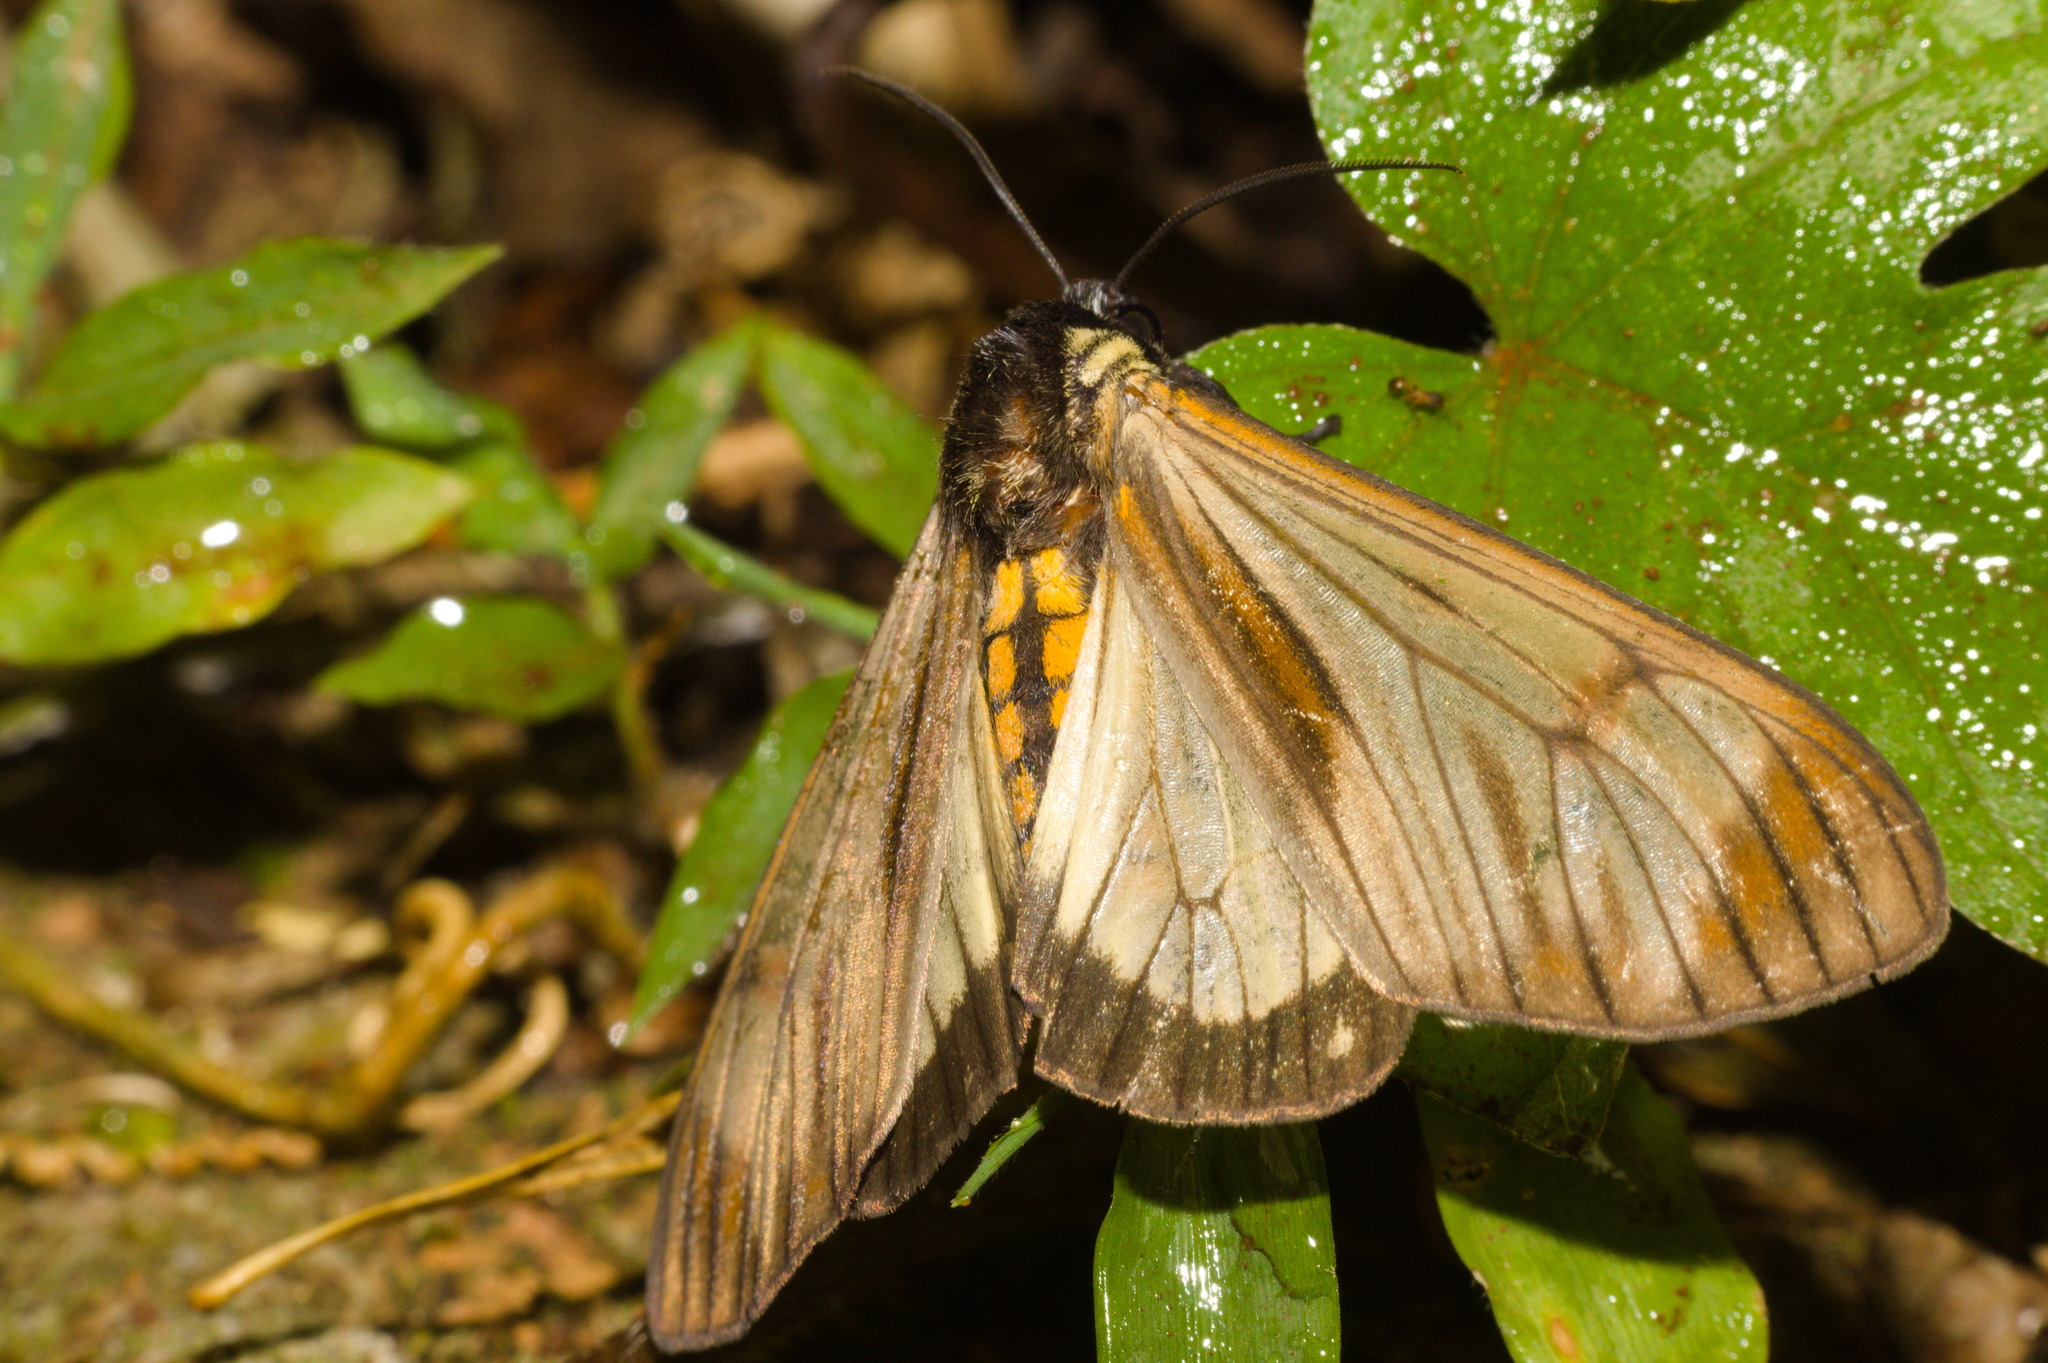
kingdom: Animalia
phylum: Arthropoda
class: Insecta
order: Lepidoptera
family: Erebidae
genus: Dysschema
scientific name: Dysschema neda
